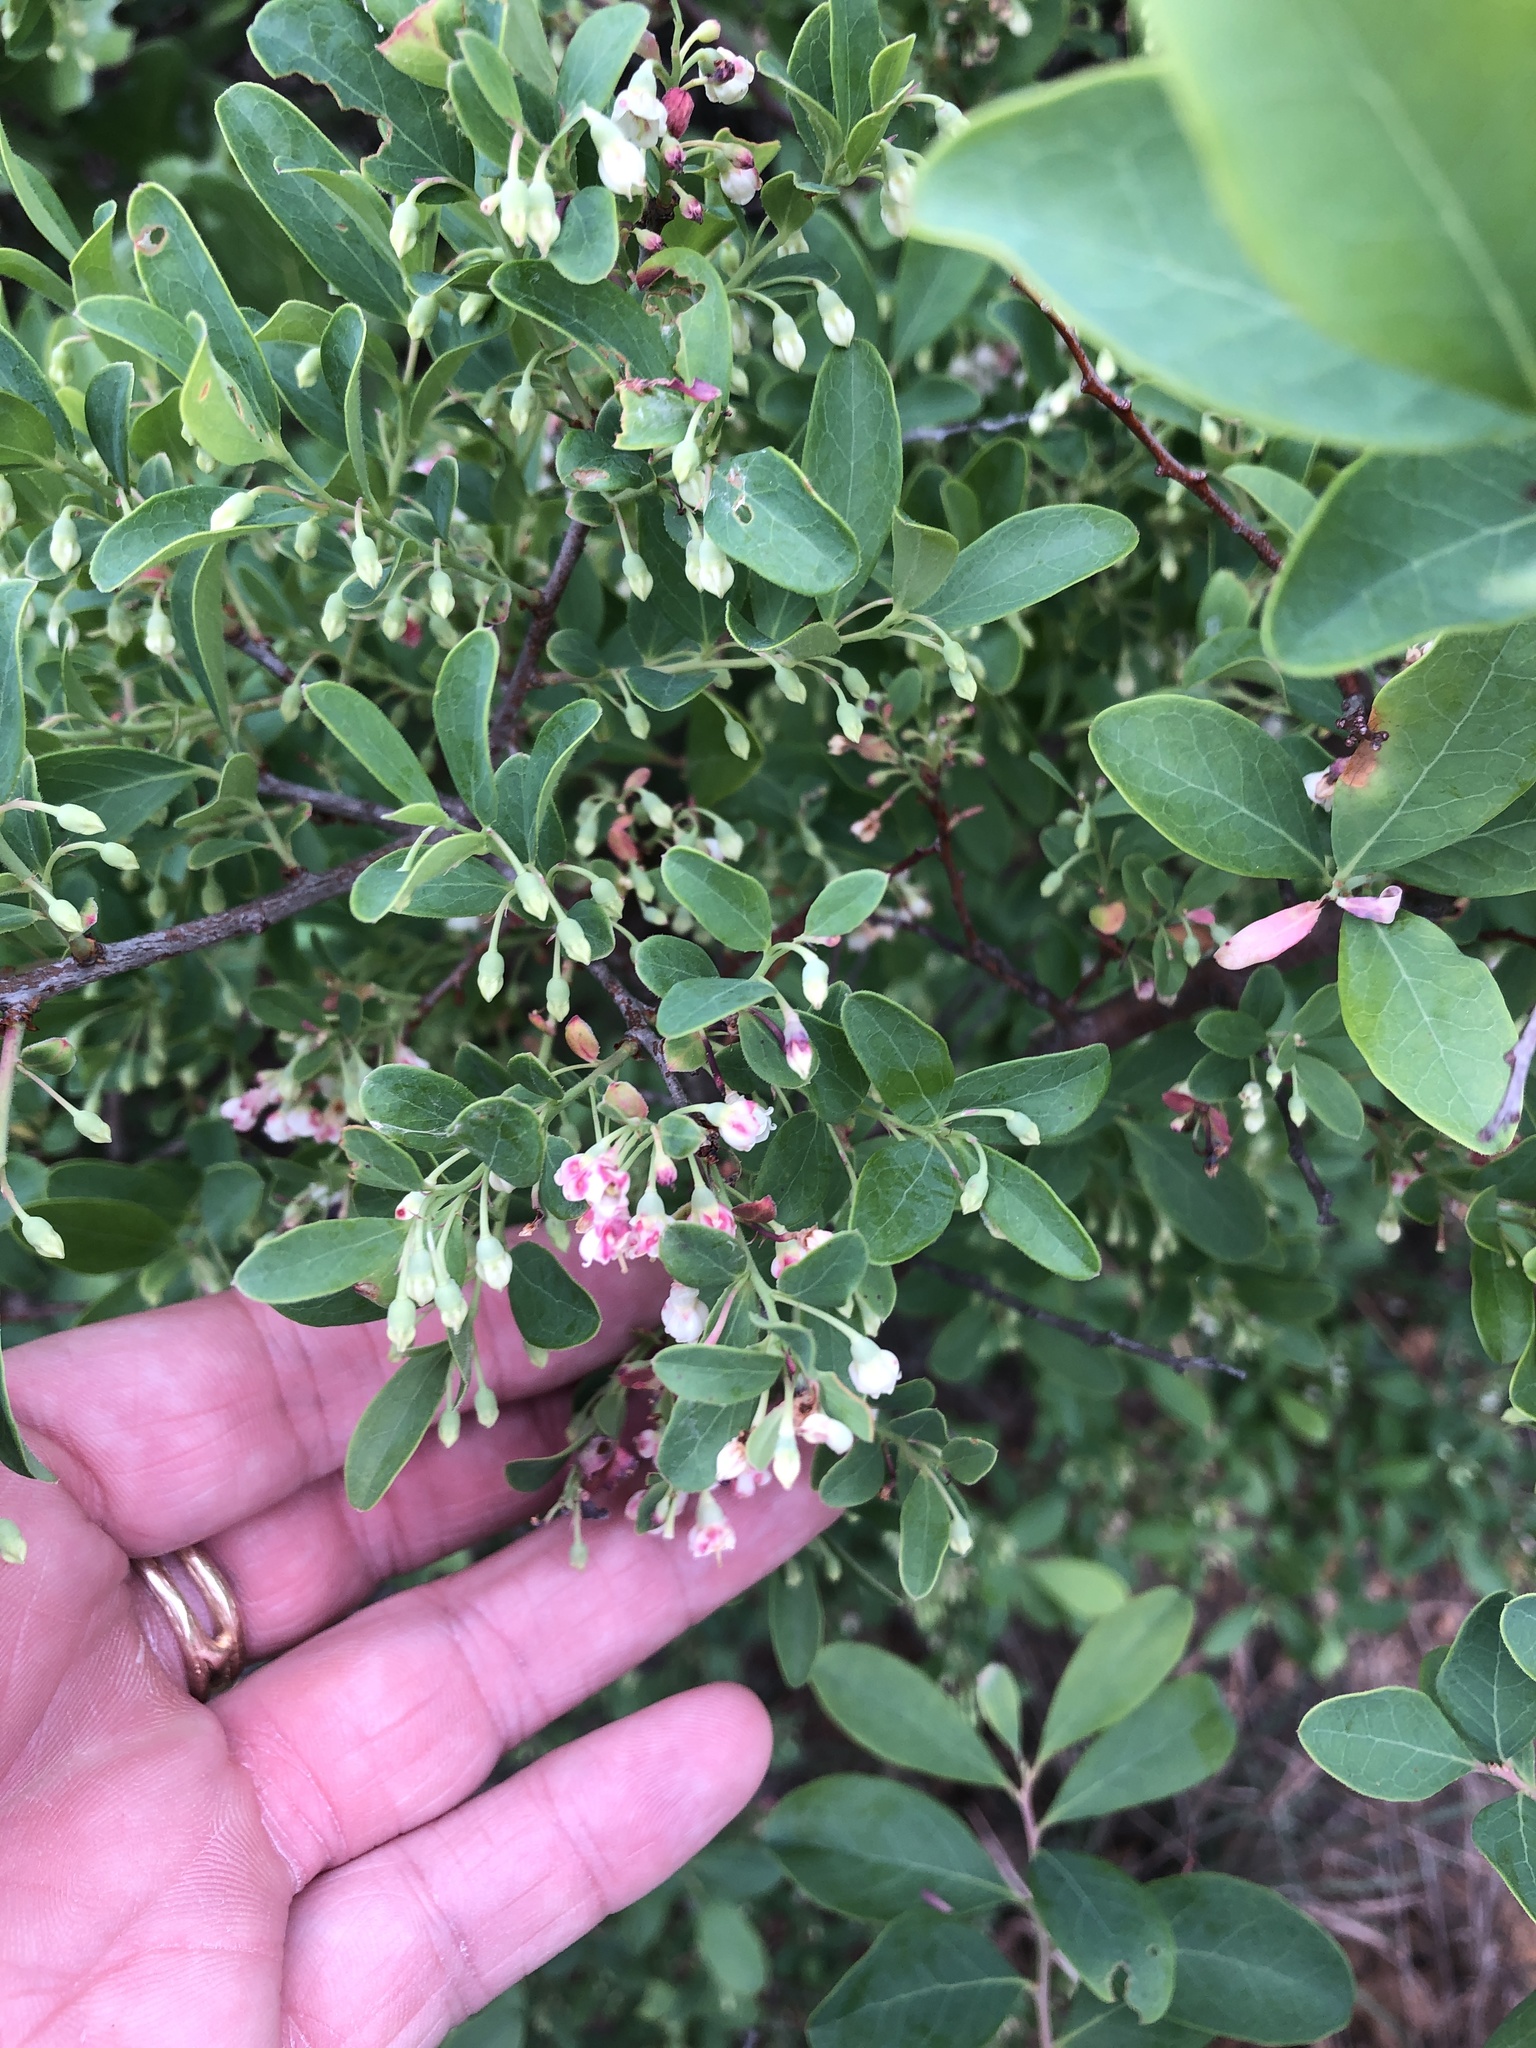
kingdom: Plantae
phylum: Tracheophyta
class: Magnoliopsida
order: Ericales
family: Ericaceae
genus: Vaccinium
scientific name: Vaccinium arboreum
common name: Farkleberry
